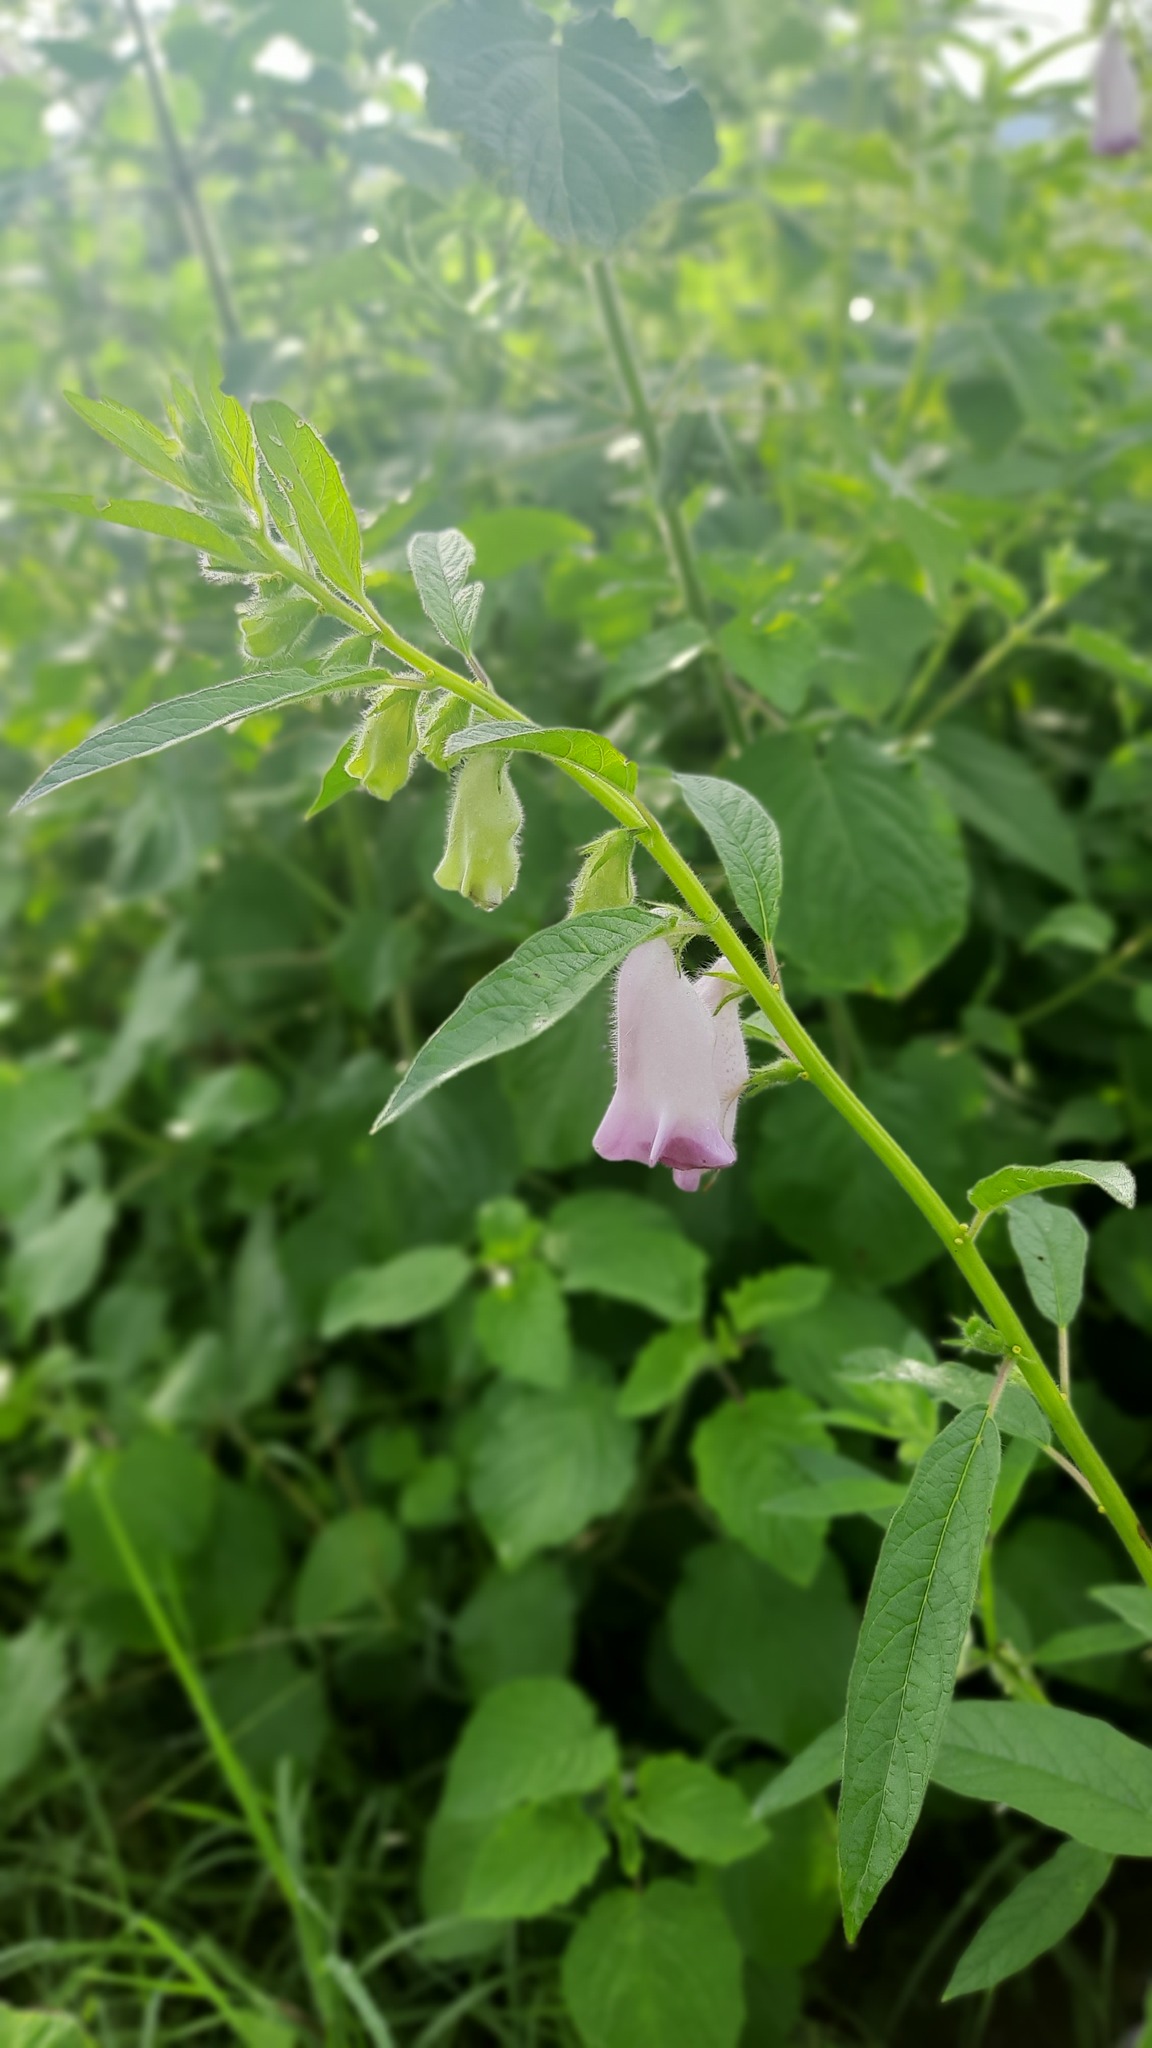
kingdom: Plantae
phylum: Tracheophyta
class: Magnoliopsida
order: Lamiales
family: Pedaliaceae
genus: Sesamum
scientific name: Sesamum indicum
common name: Sesame
